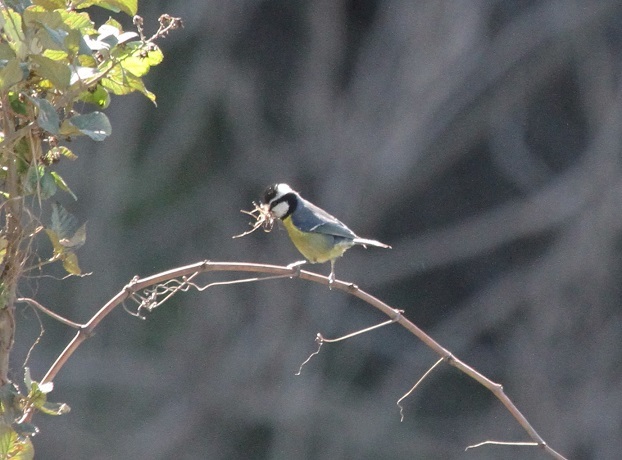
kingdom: Animalia
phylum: Chordata
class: Aves
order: Passeriformes
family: Paridae
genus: Cyanistes
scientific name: Cyanistes teneriffae
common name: African blue tit
